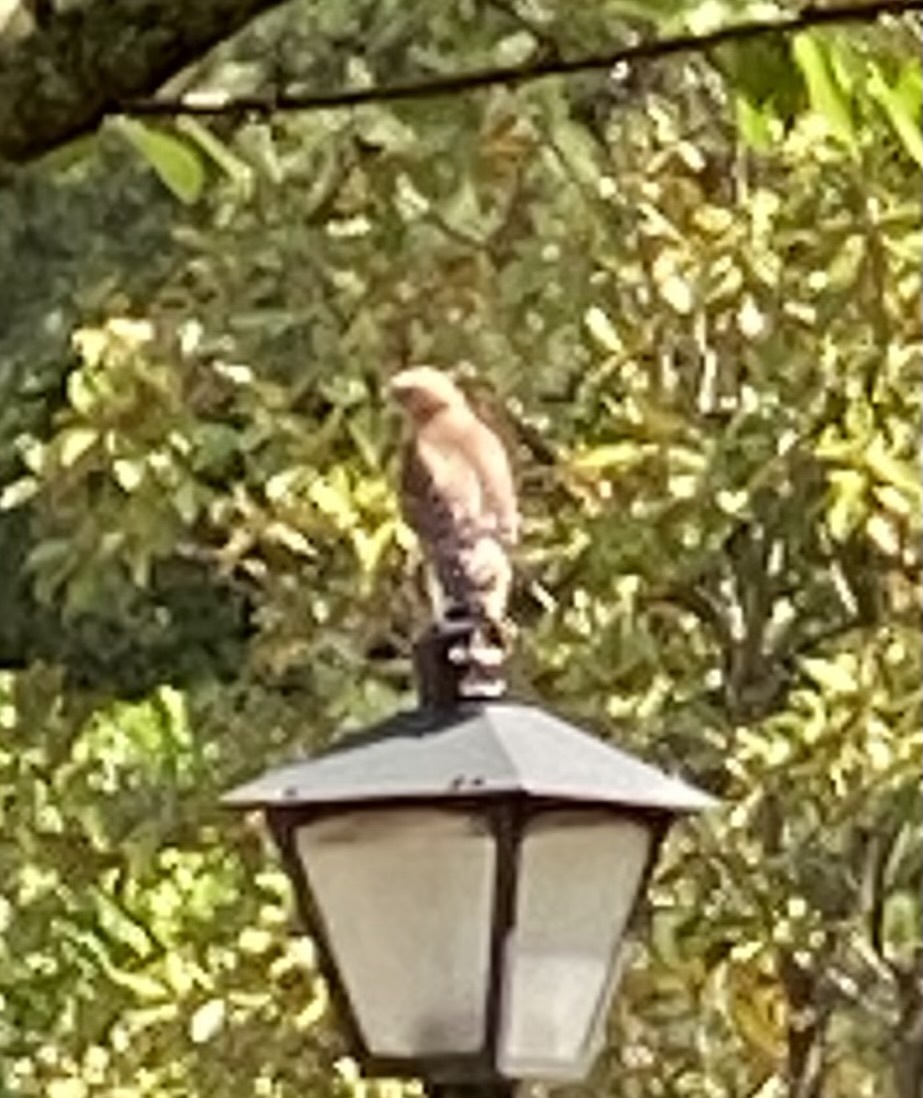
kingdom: Animalia
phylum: Chordata
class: Aves
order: Accipitriformes
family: Accipitridae
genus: Buteo
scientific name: Buteo lineatus
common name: Red-shouldered hawk
